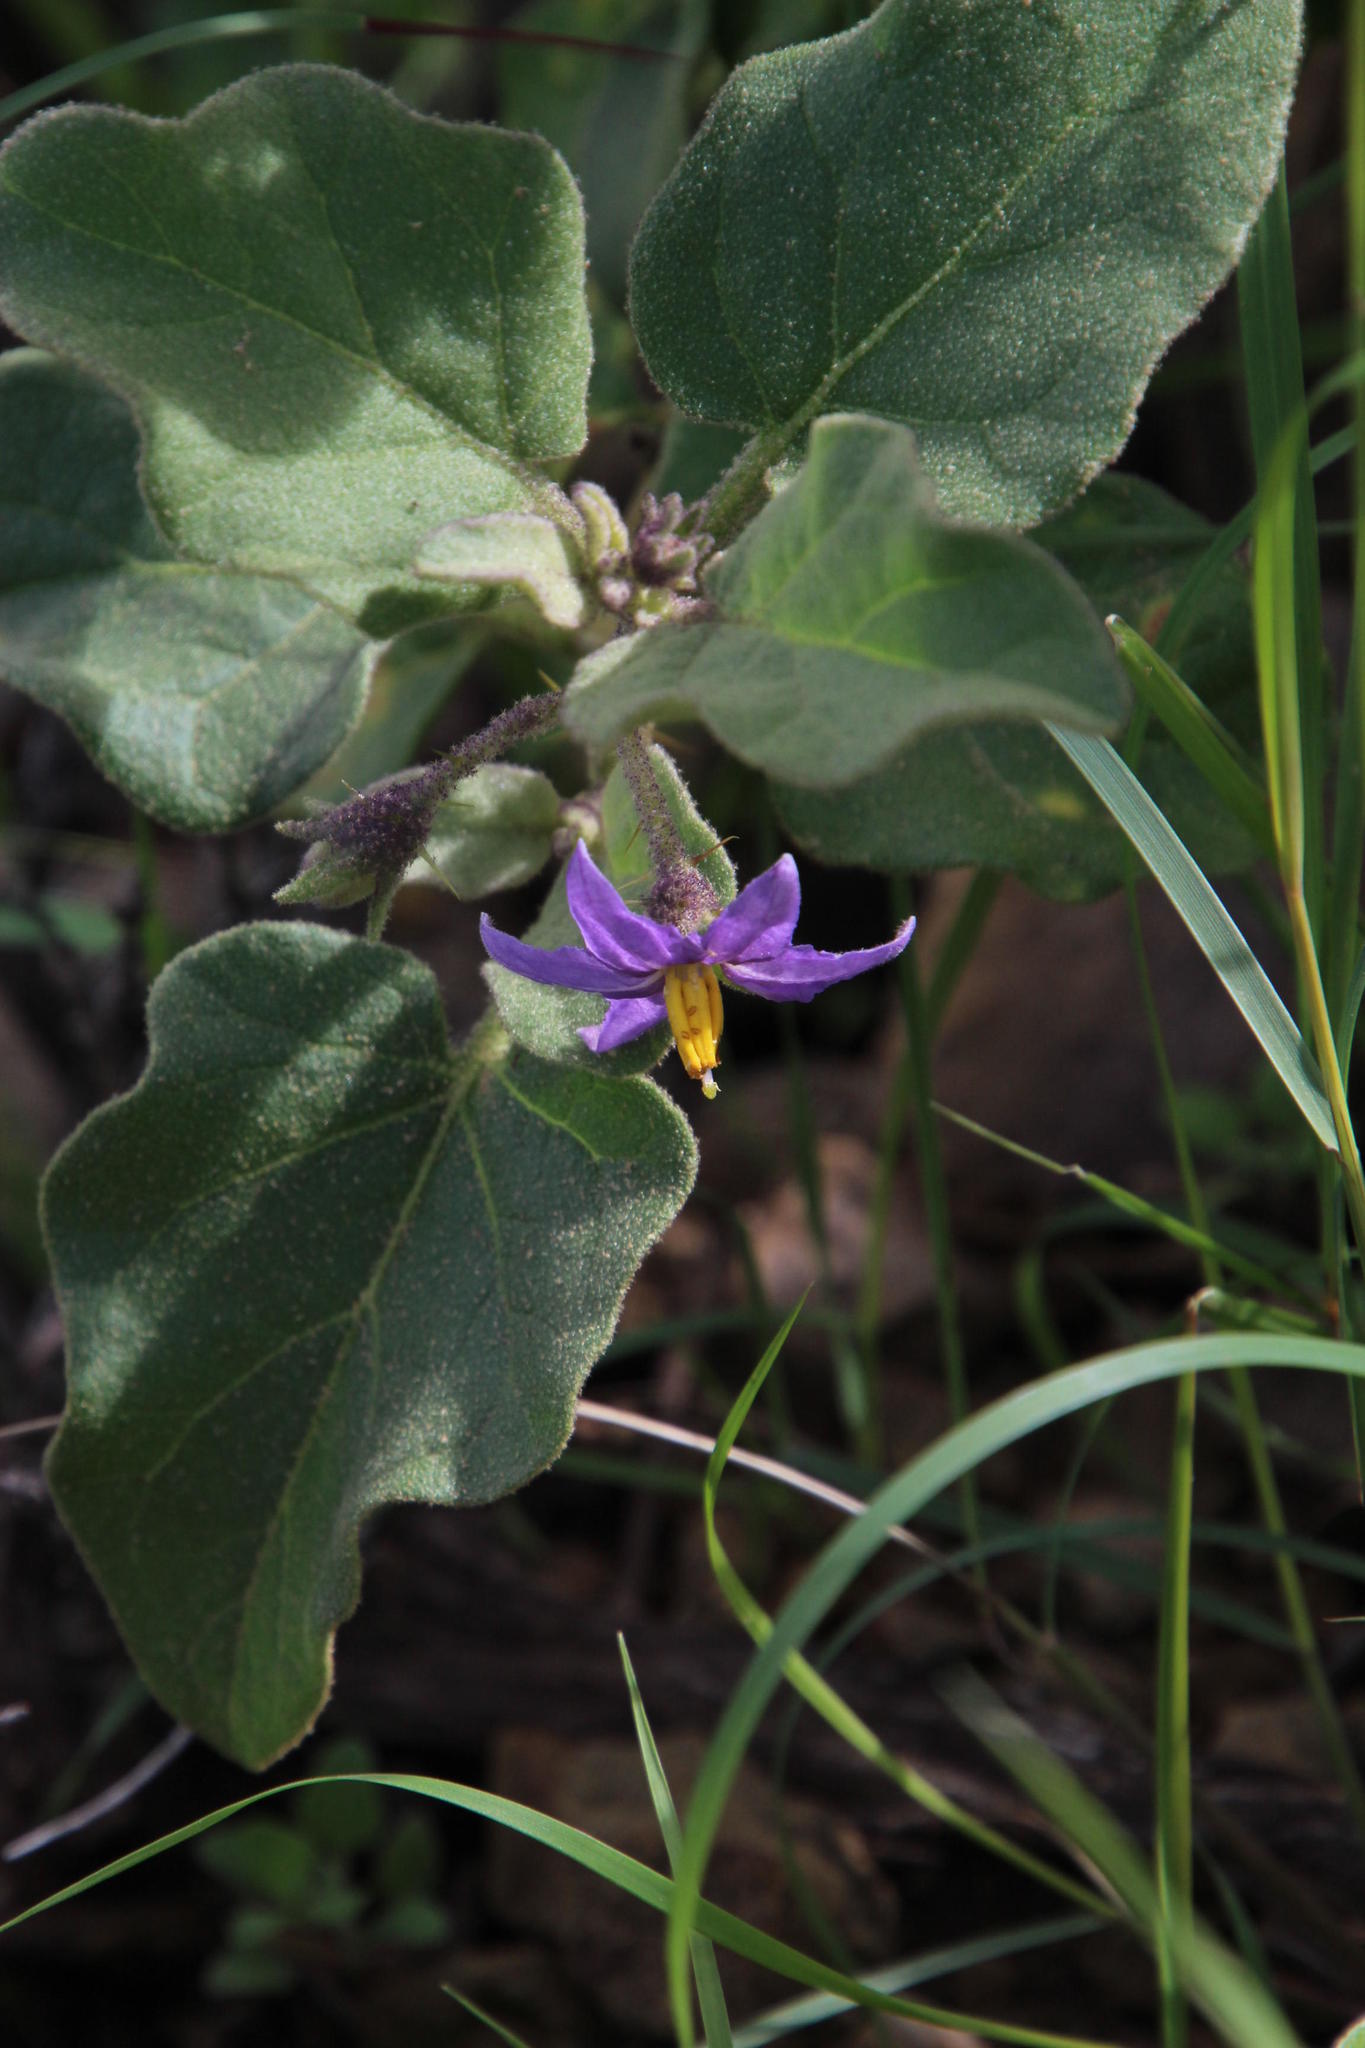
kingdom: Plantae
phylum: Tracheophyta
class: Magnoliopsida
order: Solanales
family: Solanaceae
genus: Solanum
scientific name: Solanum tomentosum
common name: Wild aubergine
